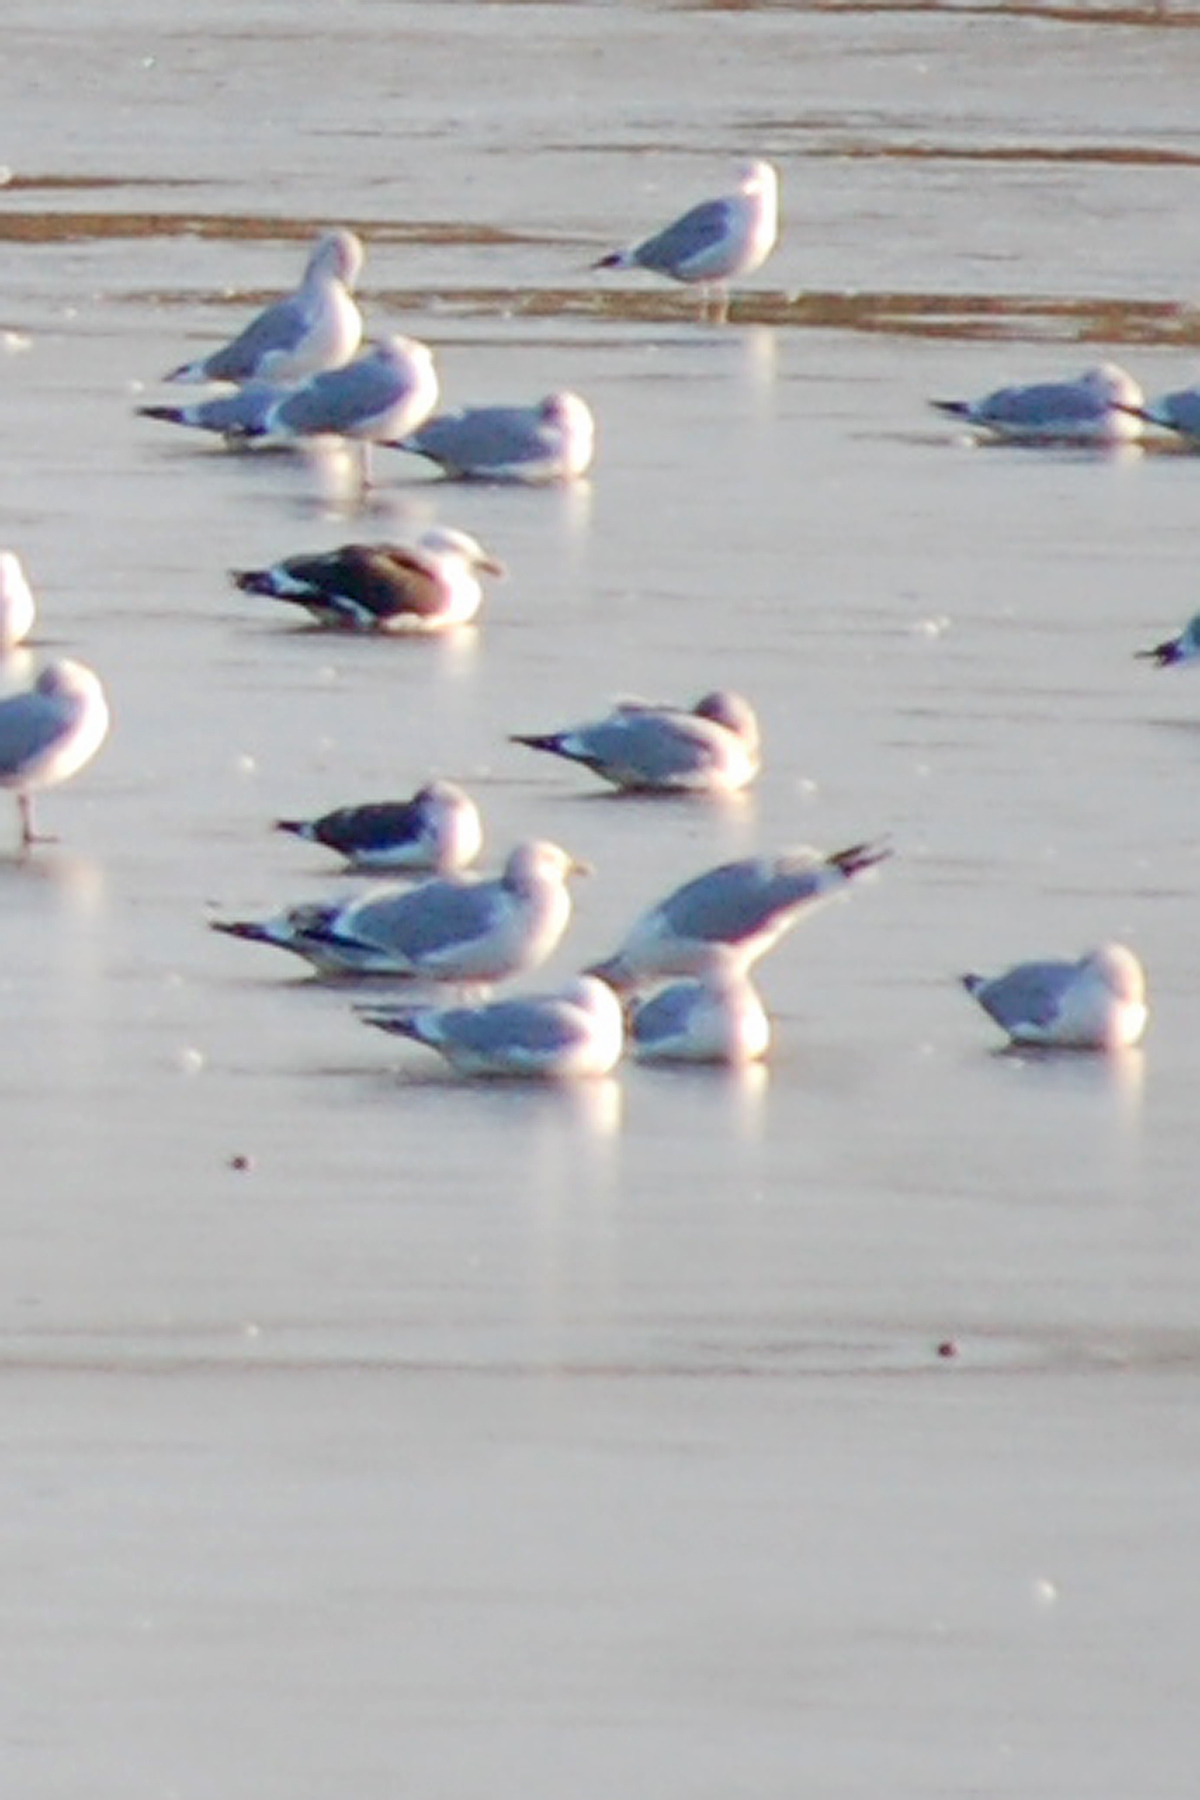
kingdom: Animalia
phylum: Chordata
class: Aves
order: Charadriiformes
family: Laridae
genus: Larus
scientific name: Larus argentatus
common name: Herring gull
